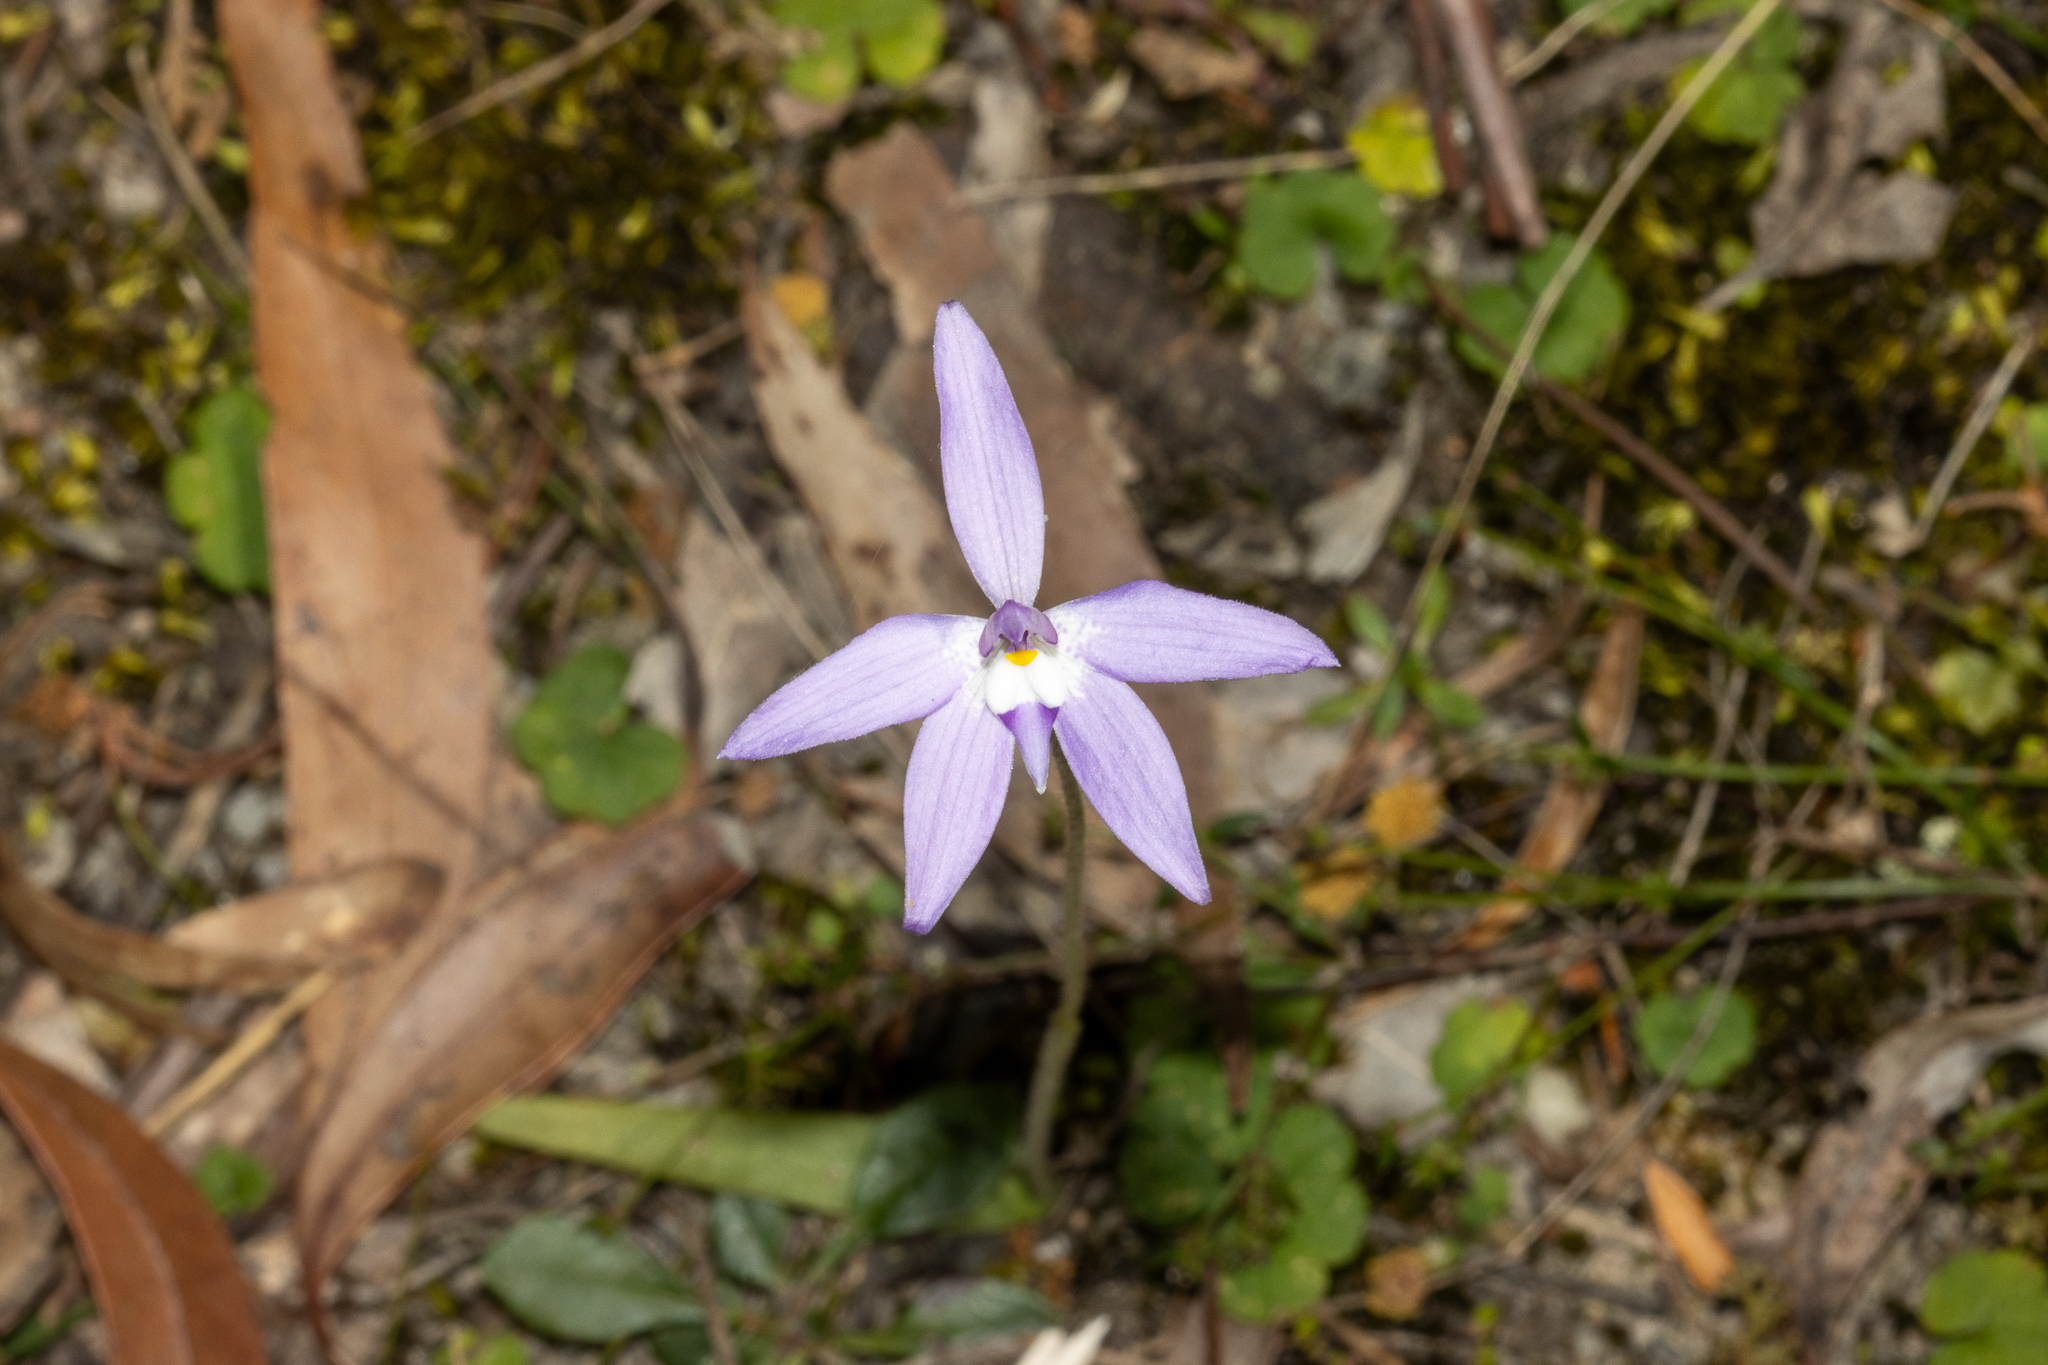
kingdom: Plantae
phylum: Tracheophyta
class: Liliopsida
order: Asparagales
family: Orchidaceae
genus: Caladenia
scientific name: Caladenia major
